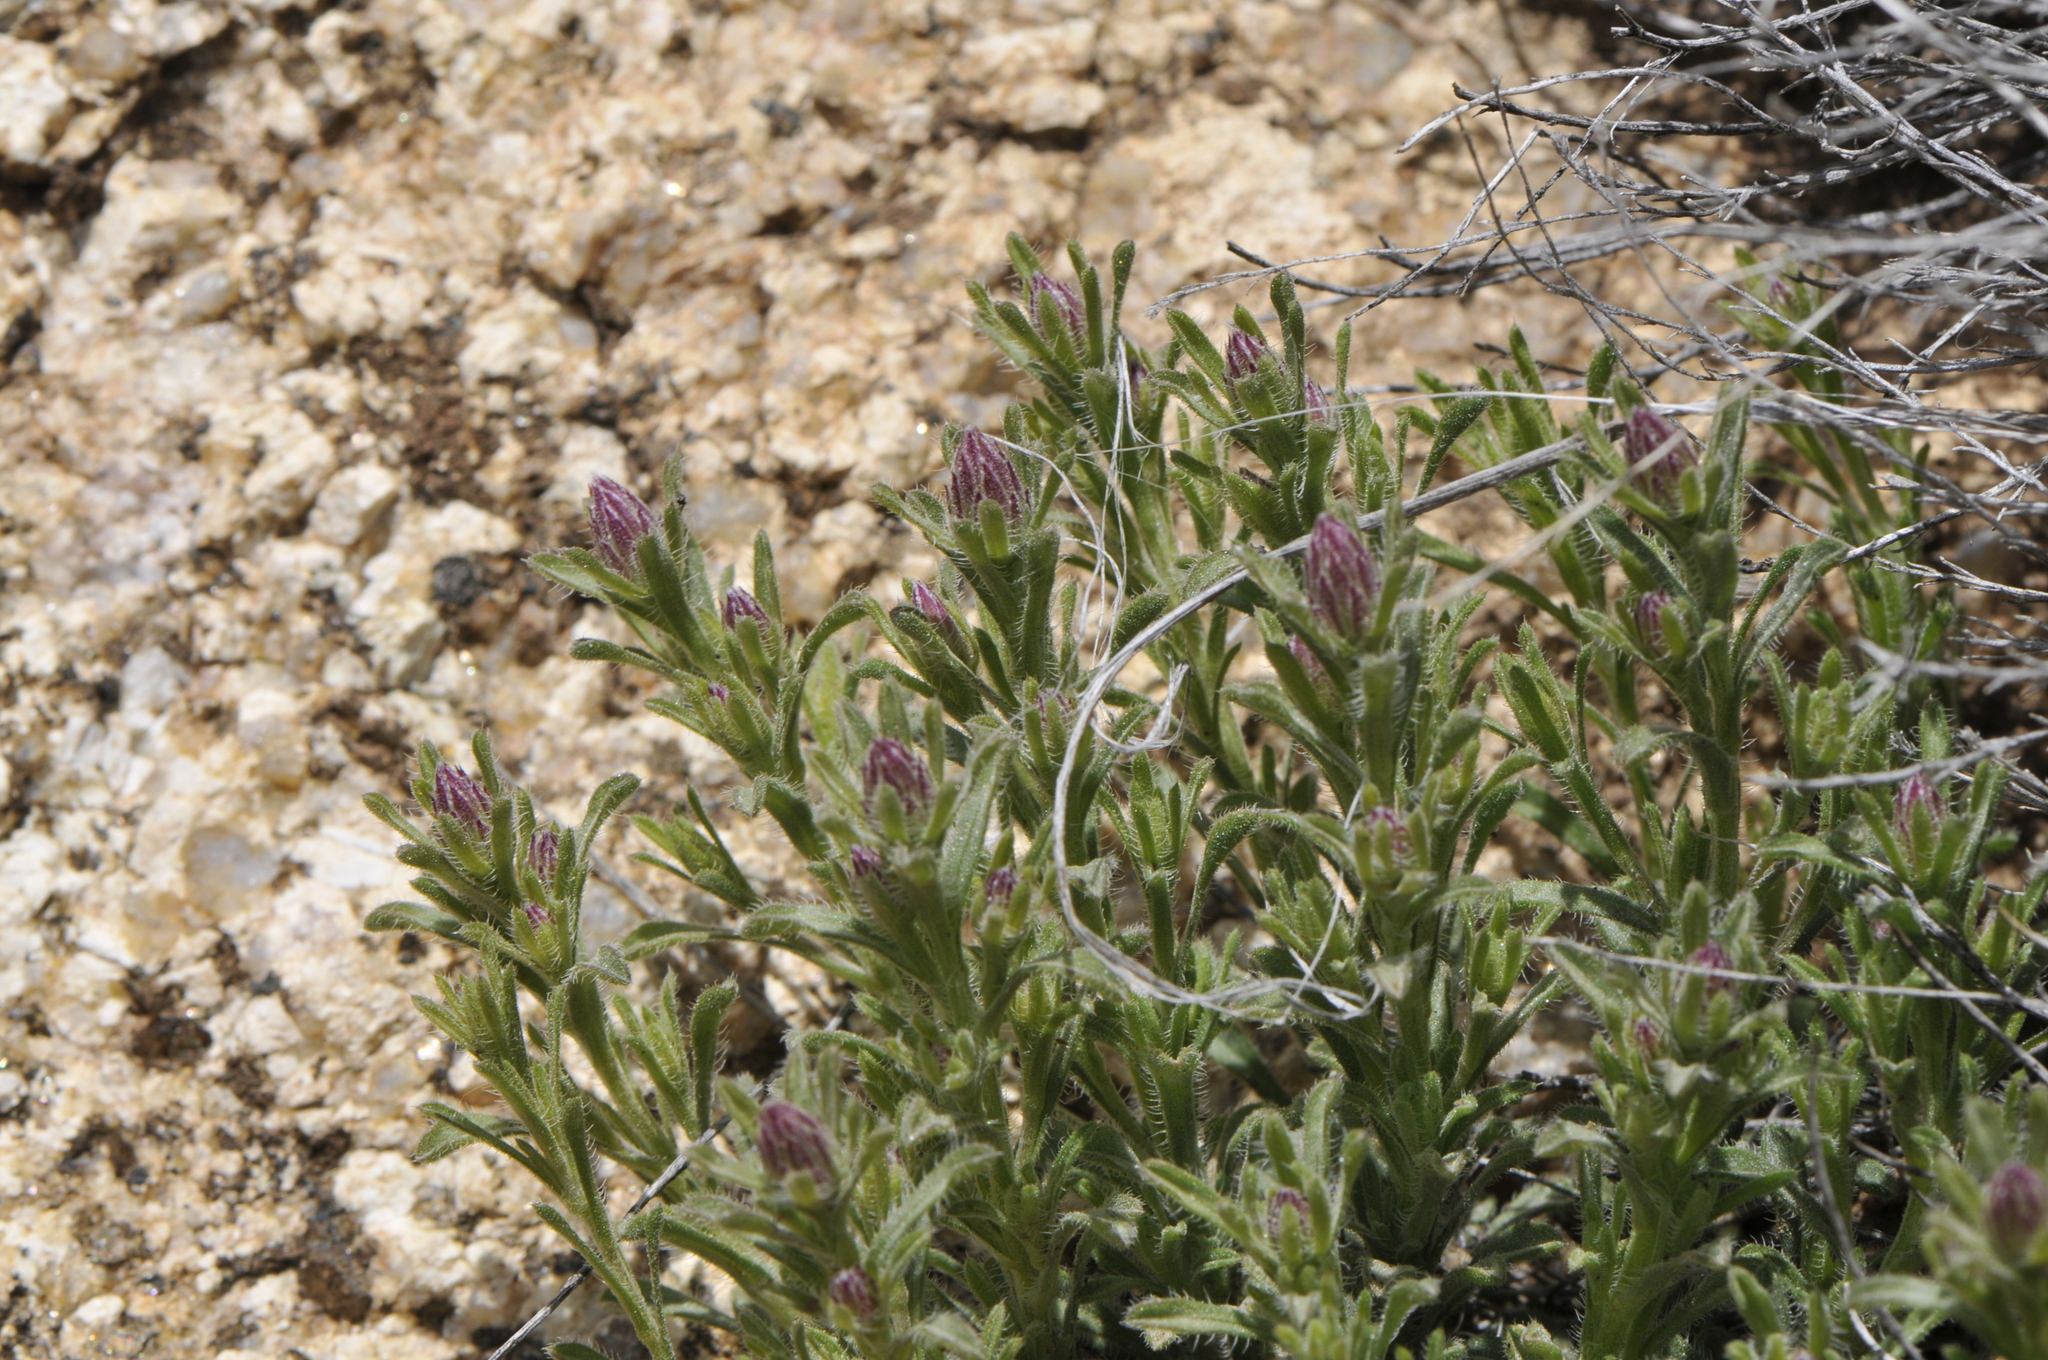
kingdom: Plantae
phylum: Tracheophyta
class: Magnoliopsida
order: Asterales
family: Asteraceae
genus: Chaetopappa
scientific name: Chaetopappa ericoides
